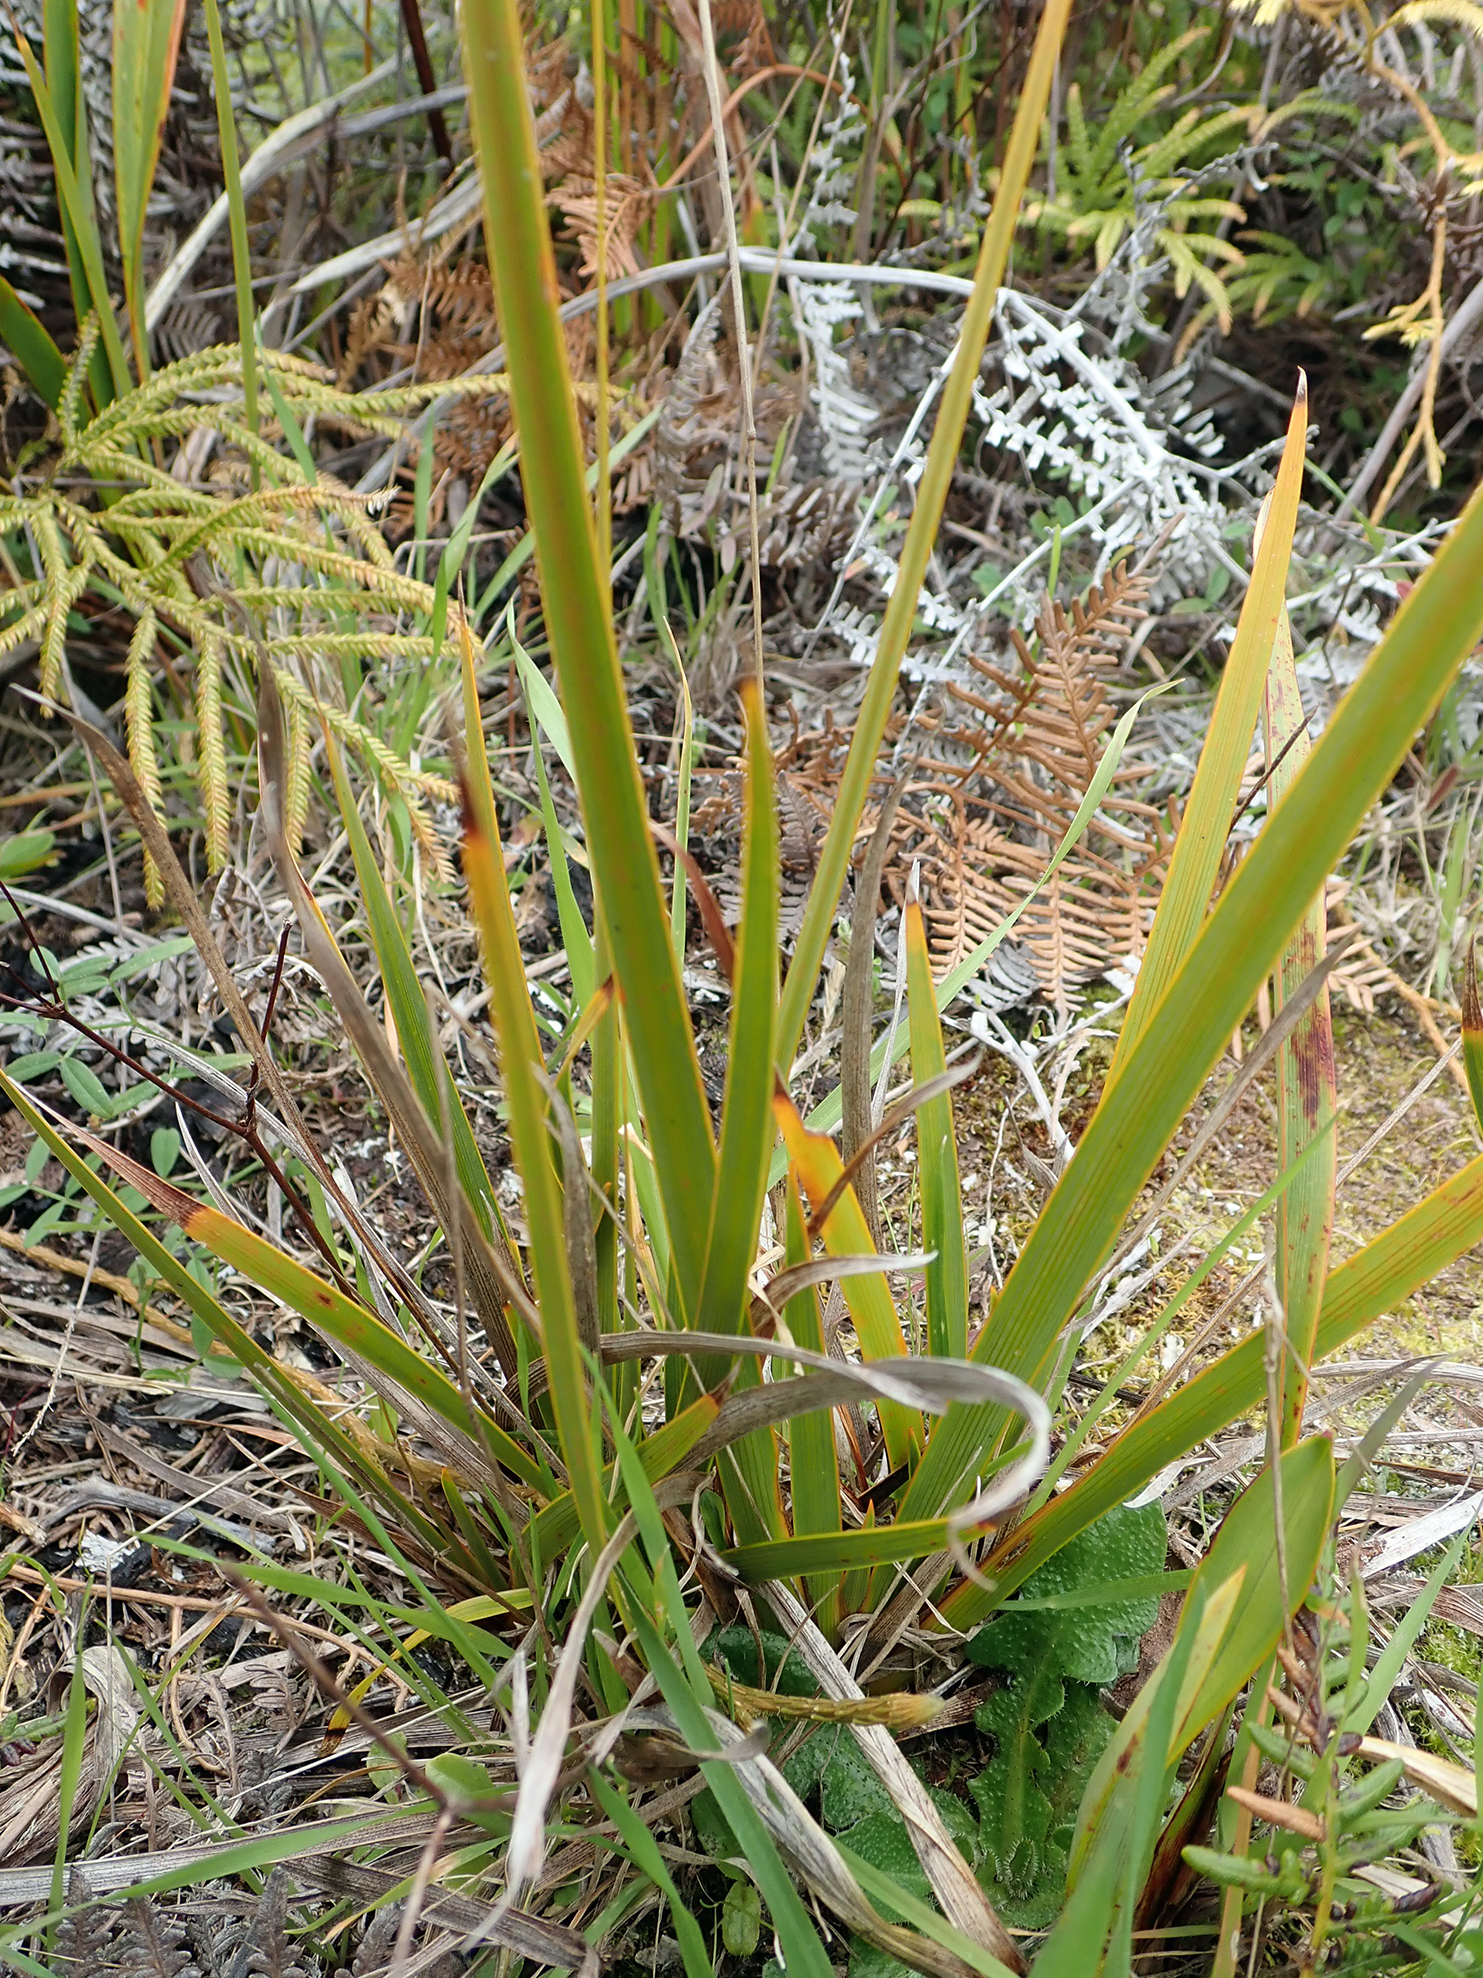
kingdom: Plantae
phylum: Tracheophyta
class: Liliopsida
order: Asparagales
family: Iridaceae
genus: Libertia
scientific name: Libertia peregrinans
